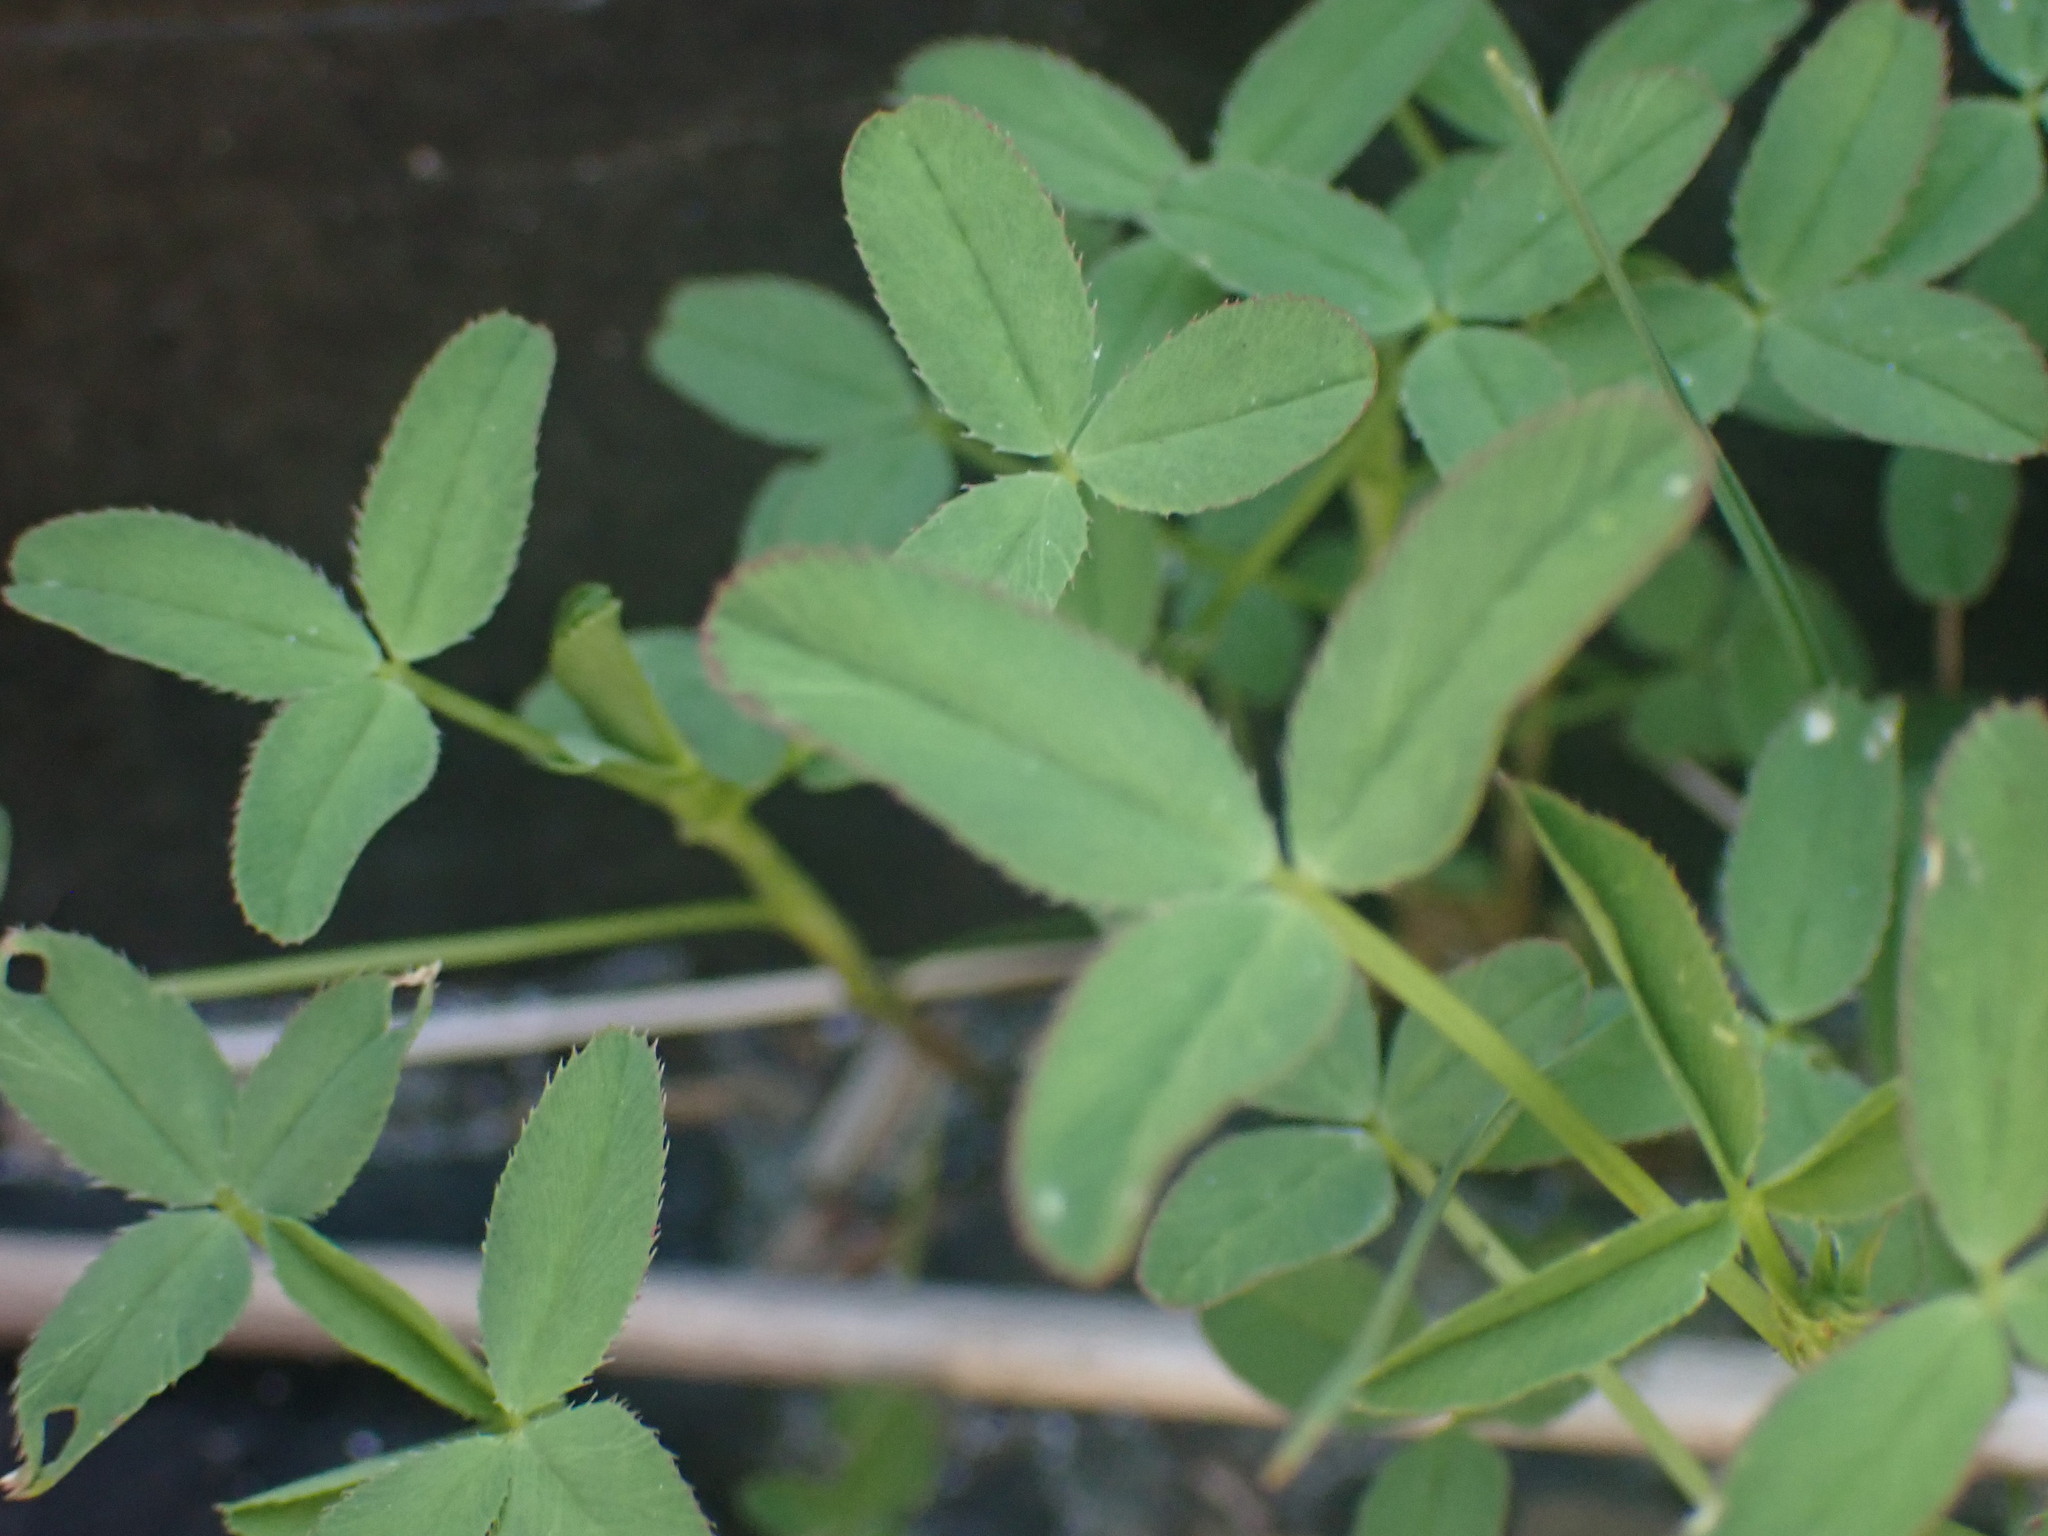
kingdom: Plantae
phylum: Tracheophyta
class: Magnoliopsida
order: Fabales
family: Fabaceae
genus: Trifolium
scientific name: Trifolium wormskioldii
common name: Springbank clover
